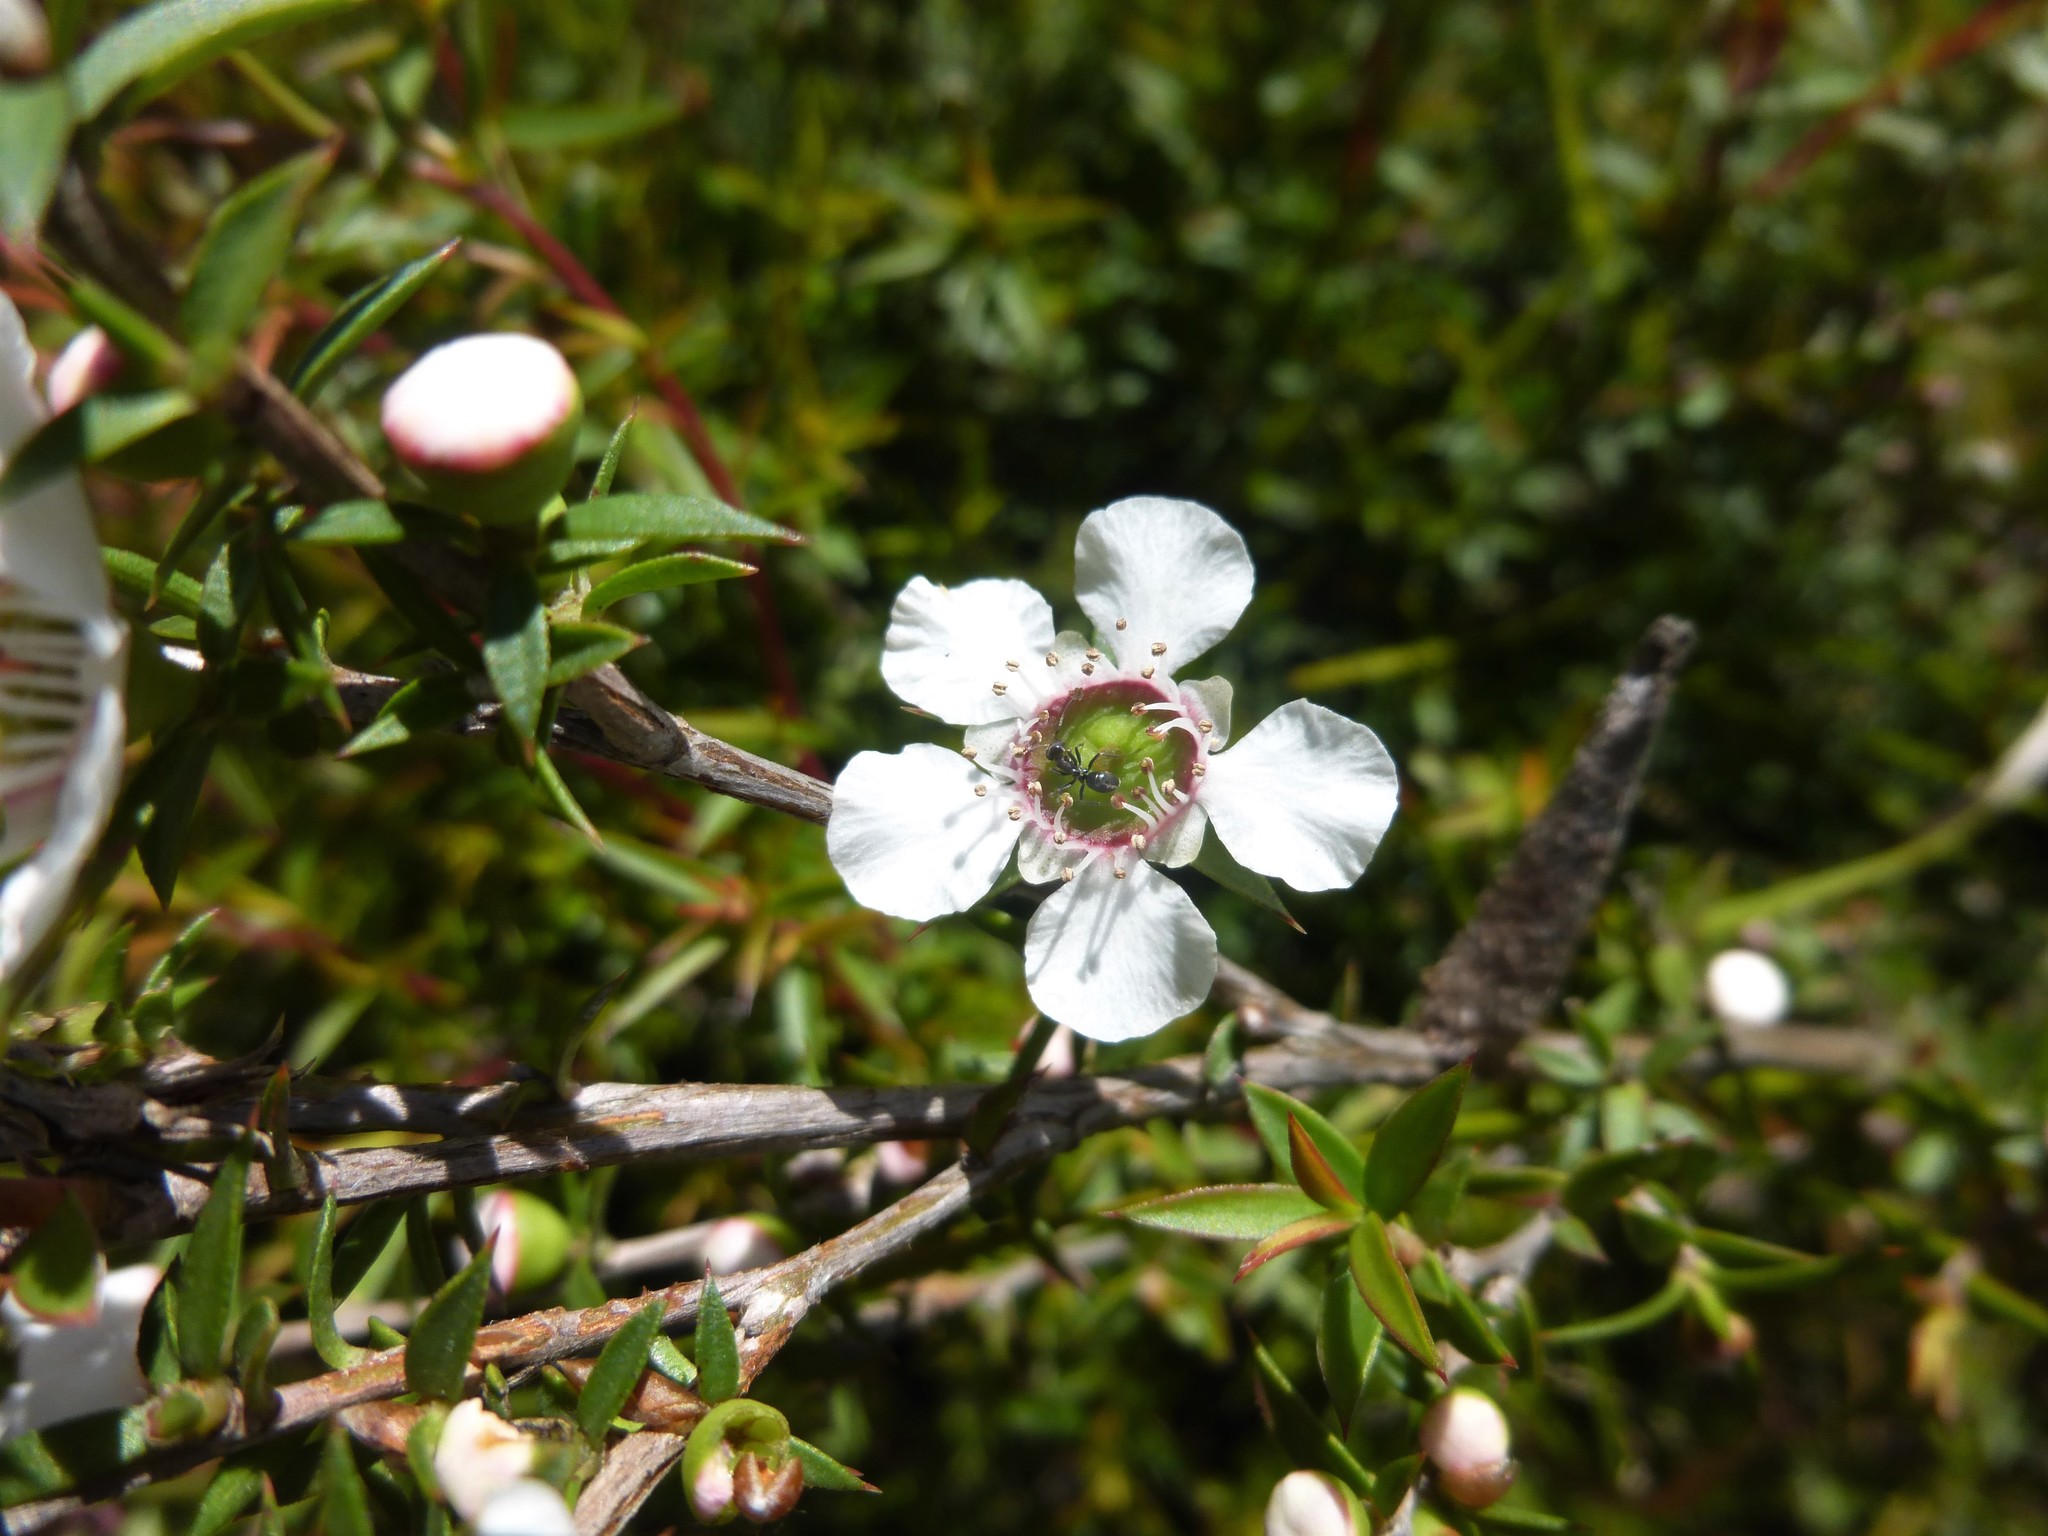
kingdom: Plantae
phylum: Tracheophyta
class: Magnoliopsida
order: Myrtales
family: Myrtaceae
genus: Leptospermum
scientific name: Leptospermum continentale
